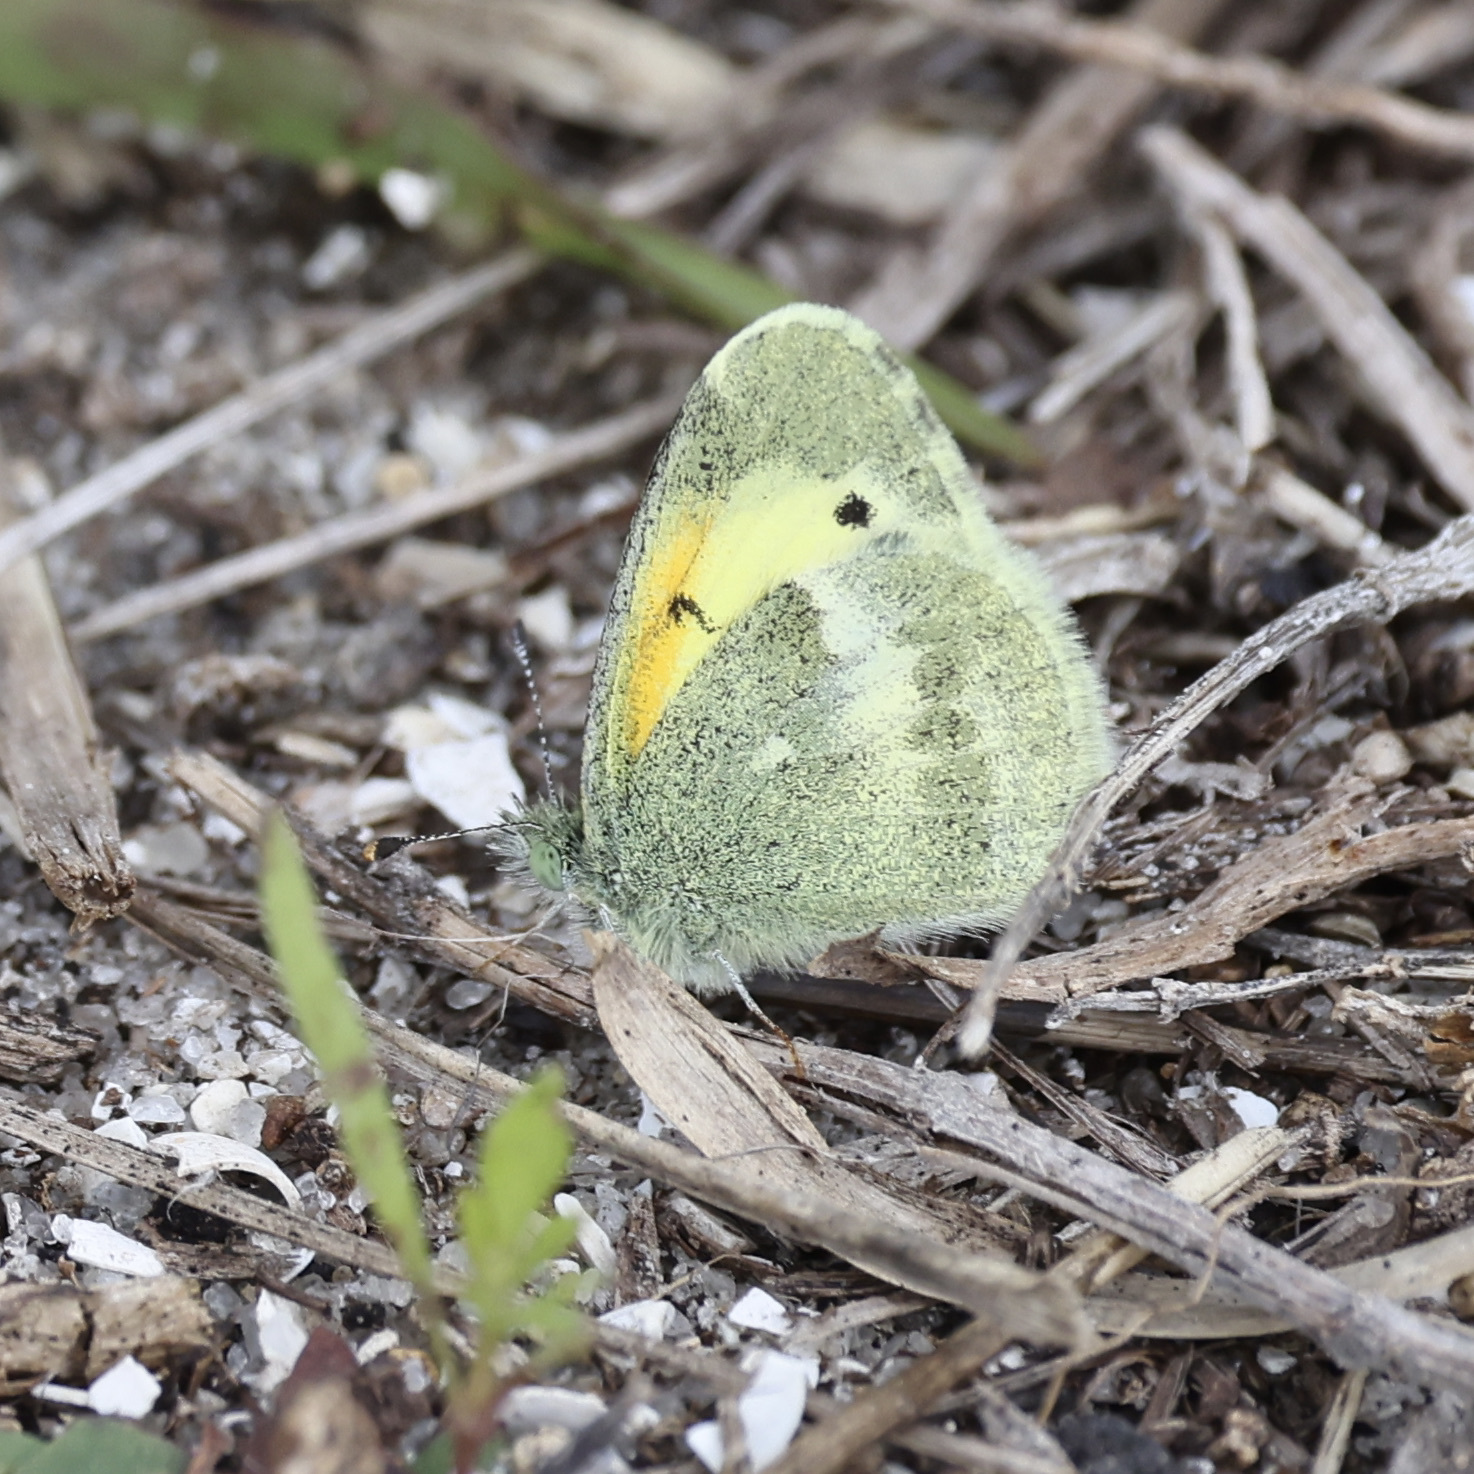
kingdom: Animalia
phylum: Arthropoda
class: Insecta
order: Lepidoptera
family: Pieridae
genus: Nathalis
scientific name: Nathalis iole
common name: Dainty sulphur
